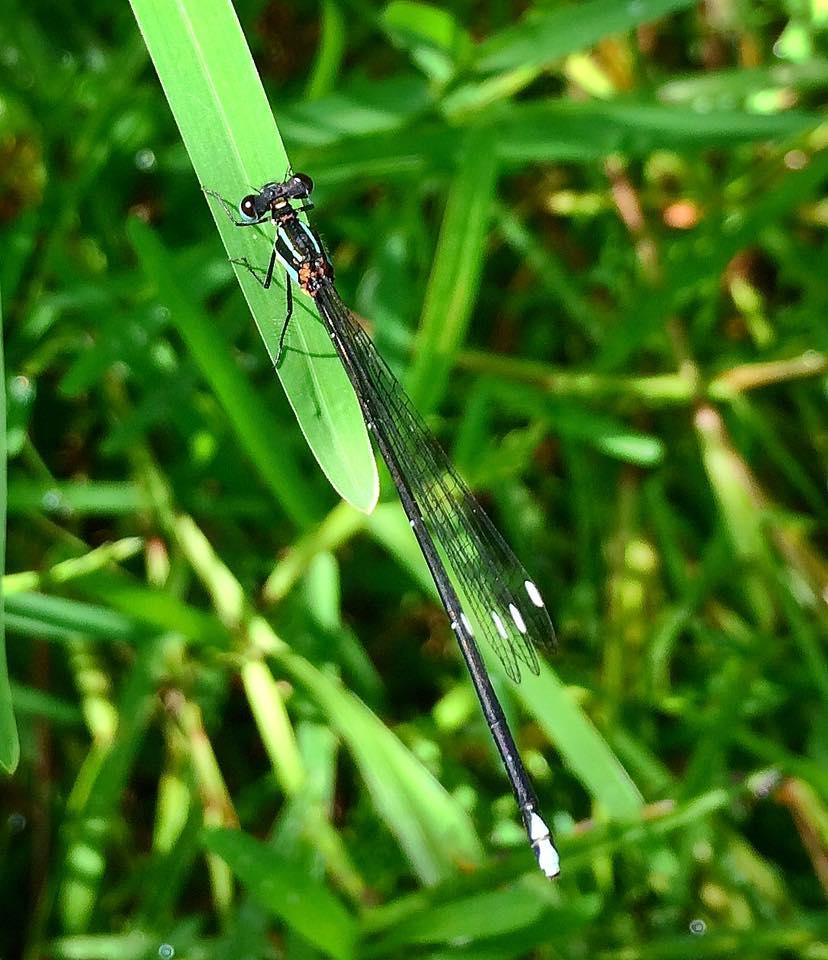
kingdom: Animalia
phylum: Arthropoda
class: Insecta
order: Odonata
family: Platycnemididae
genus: Allocnemis
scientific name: Allocnemis leucosticta
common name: Goldtail
